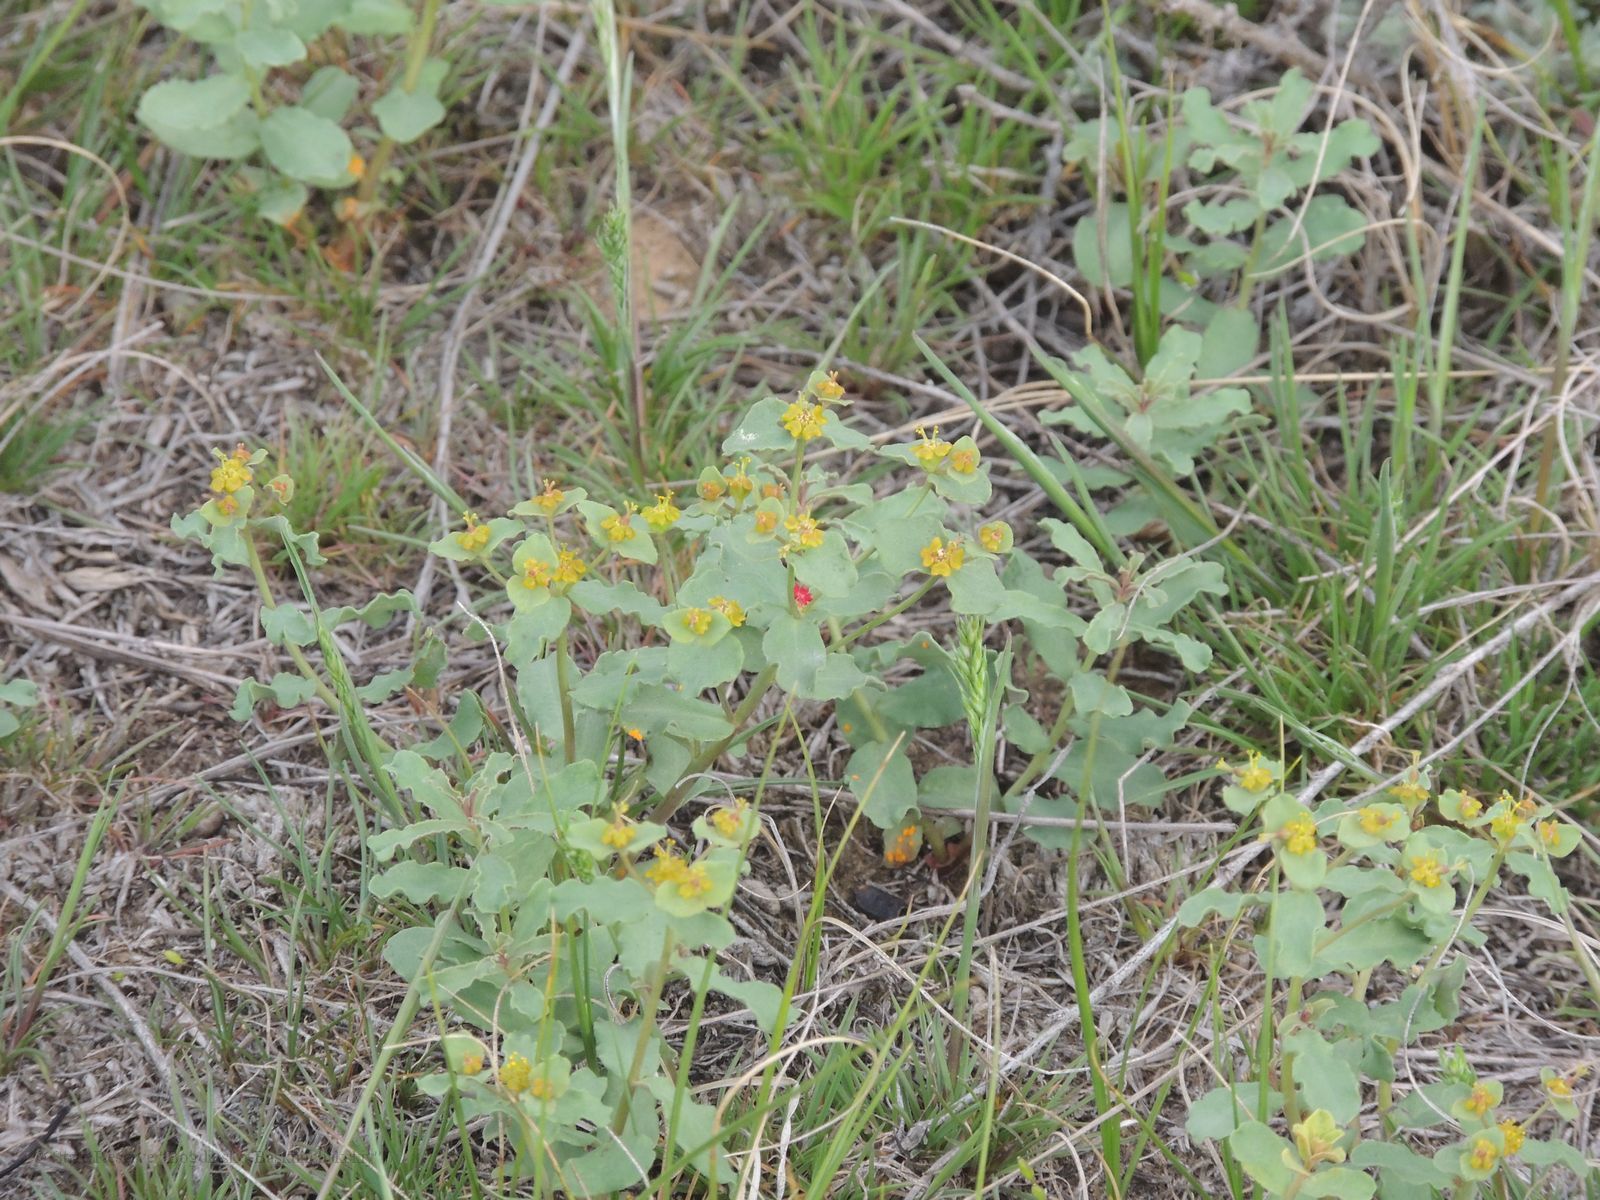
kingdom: Plantae
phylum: Tracheophyta
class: Magnoliopsida
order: Malpighiales
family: Euphorbiaceae
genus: Euphorbia
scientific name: Euphorbia undulata
